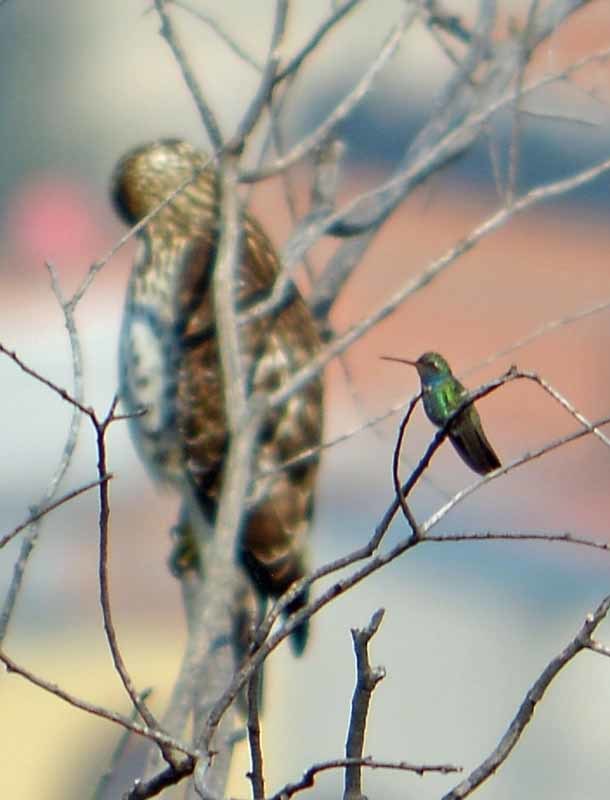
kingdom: Animalia
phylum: Chordata
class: Aves
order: Apodiformes
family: Trochilidae
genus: Cynanthus
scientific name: Cynanthus latirostris
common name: Broad-billed hummingbird
